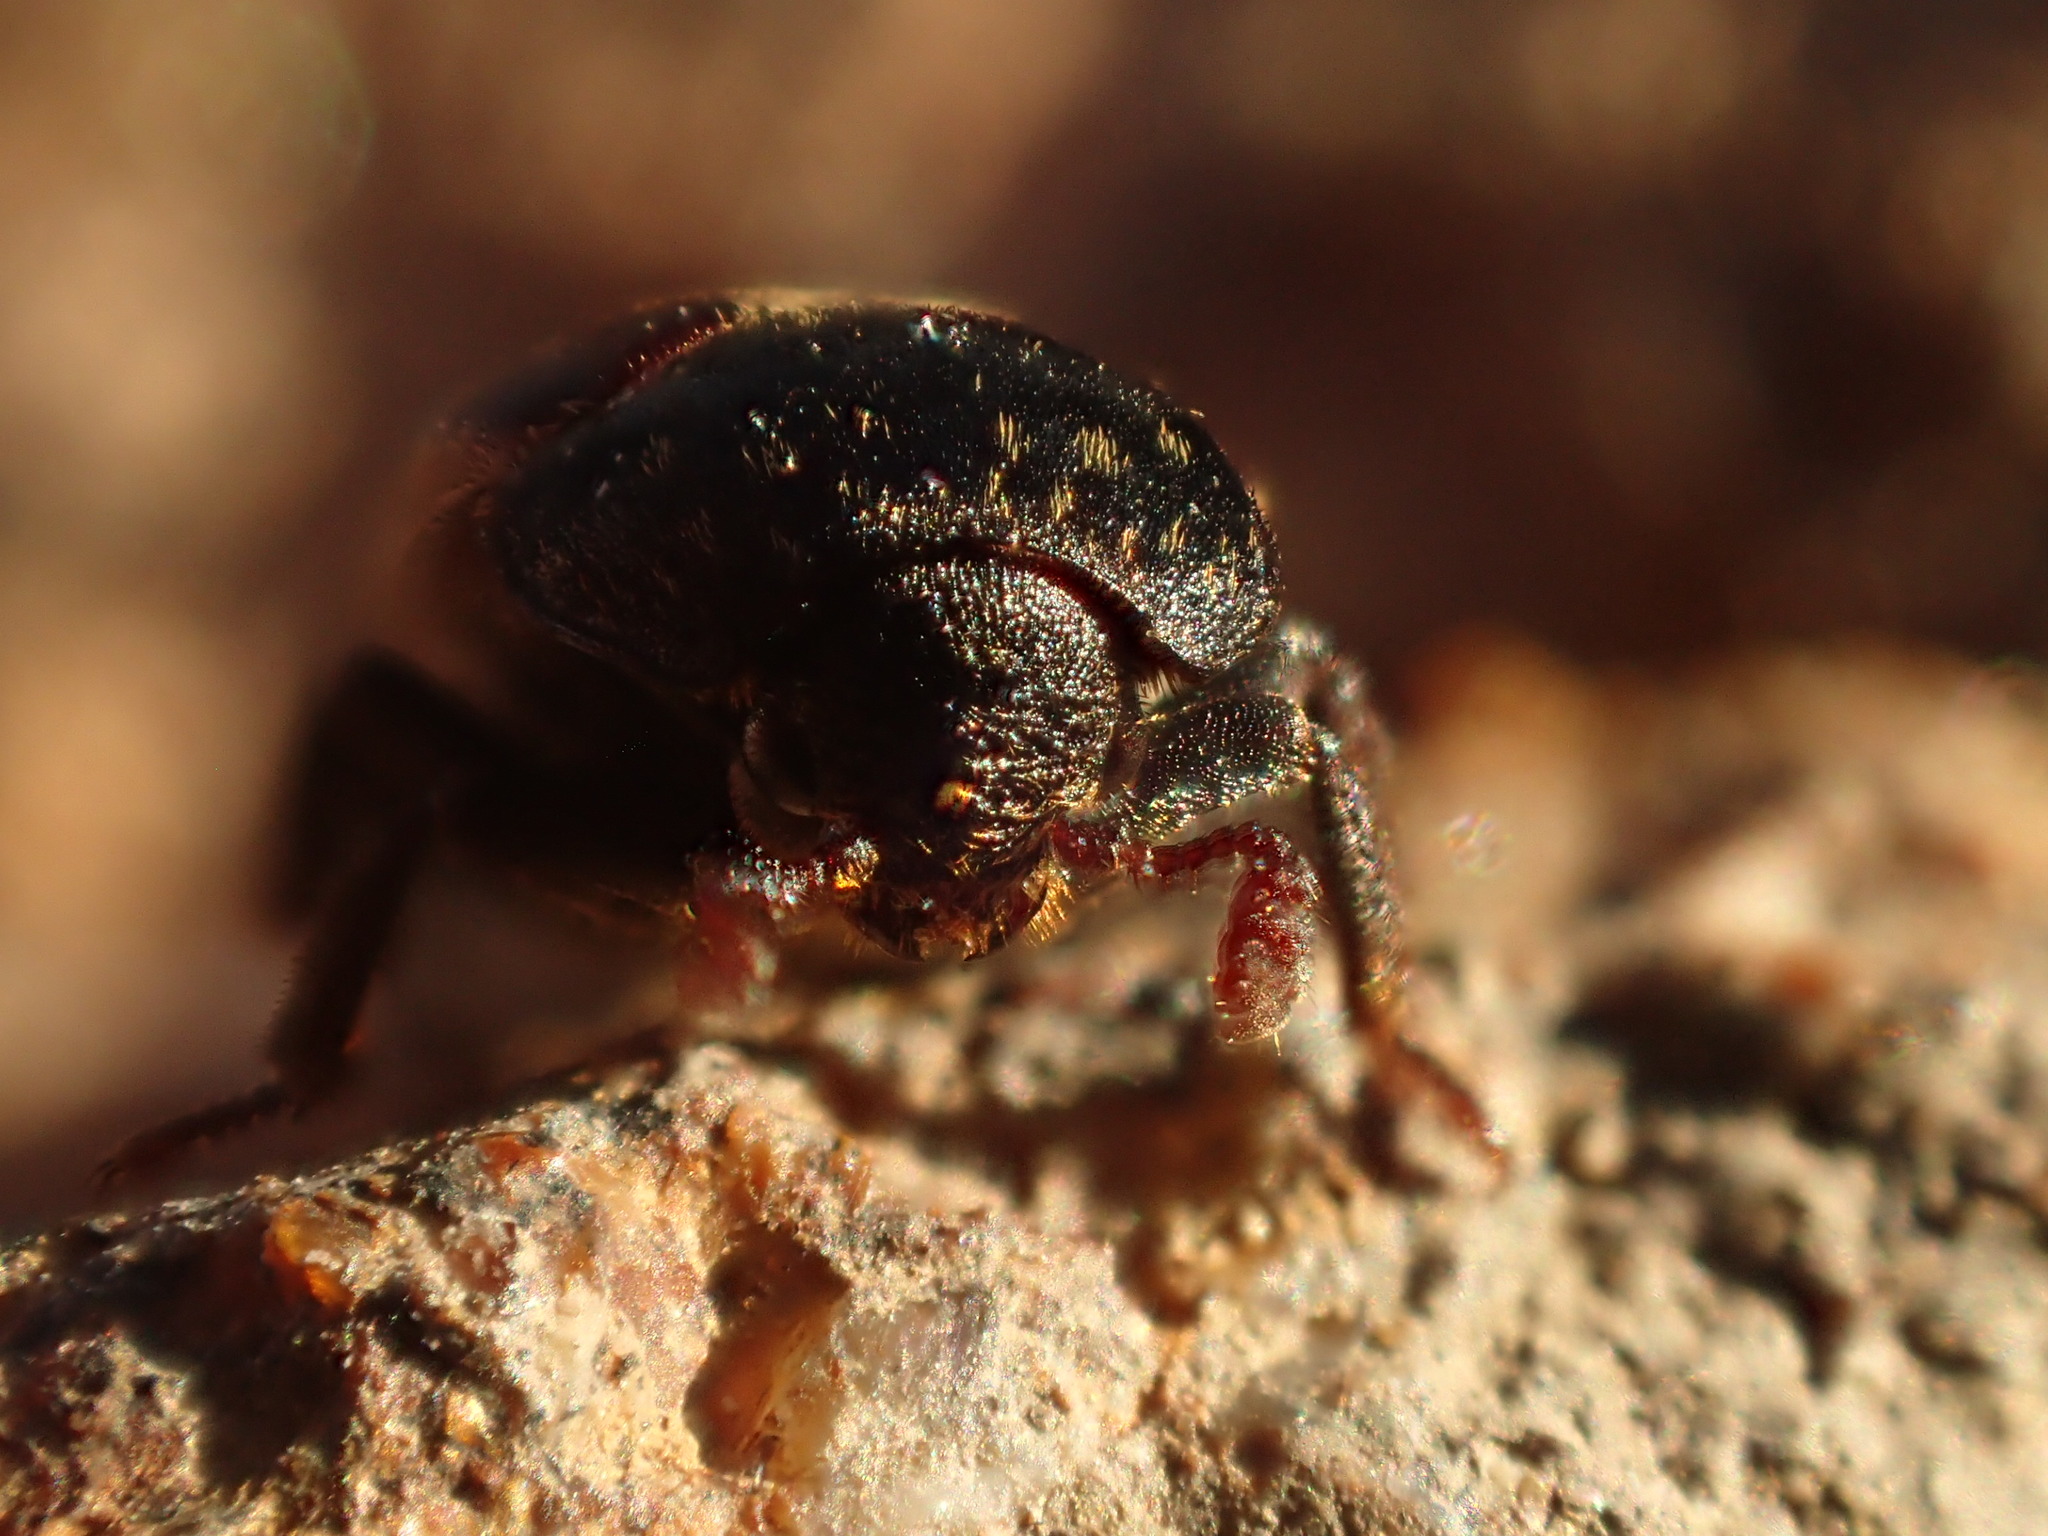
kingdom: Animalia
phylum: Arthropoda
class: Insecta
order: Coleoptera
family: Dermestidae
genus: Dermestes
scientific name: Dermestes lardarius
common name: Larder beetle
